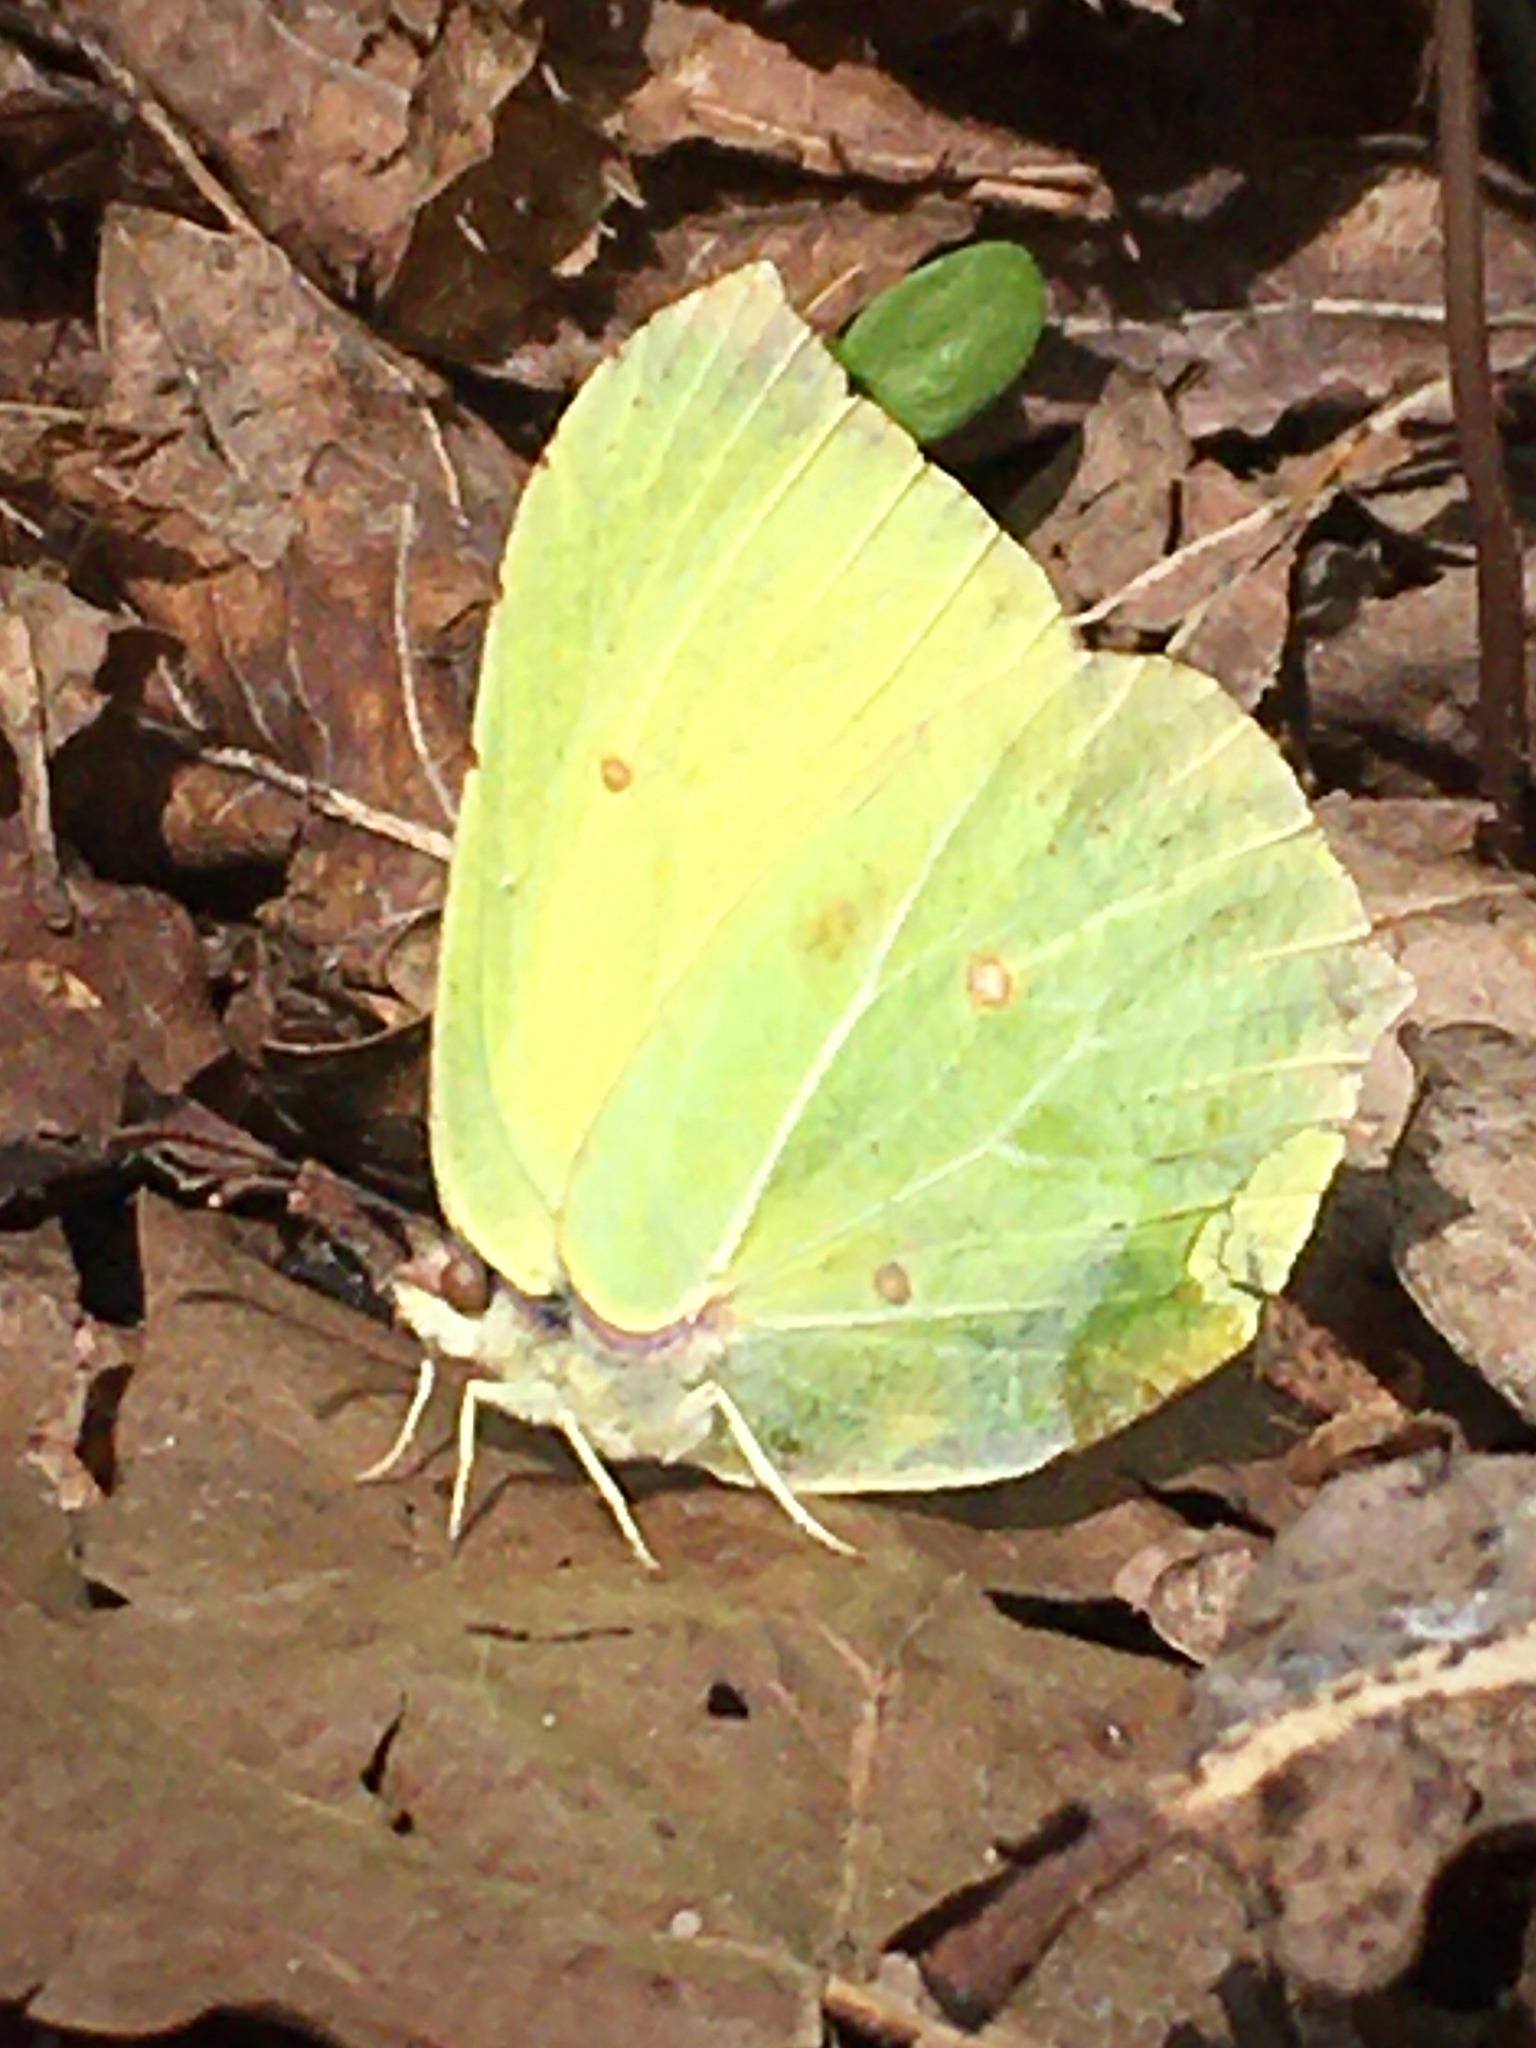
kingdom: Animalia
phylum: Arthropoda
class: Insecta
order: Lepidoptera
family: Pieridae
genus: Gonepteryx
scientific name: Gonepteryx rhamni
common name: Brimstone
